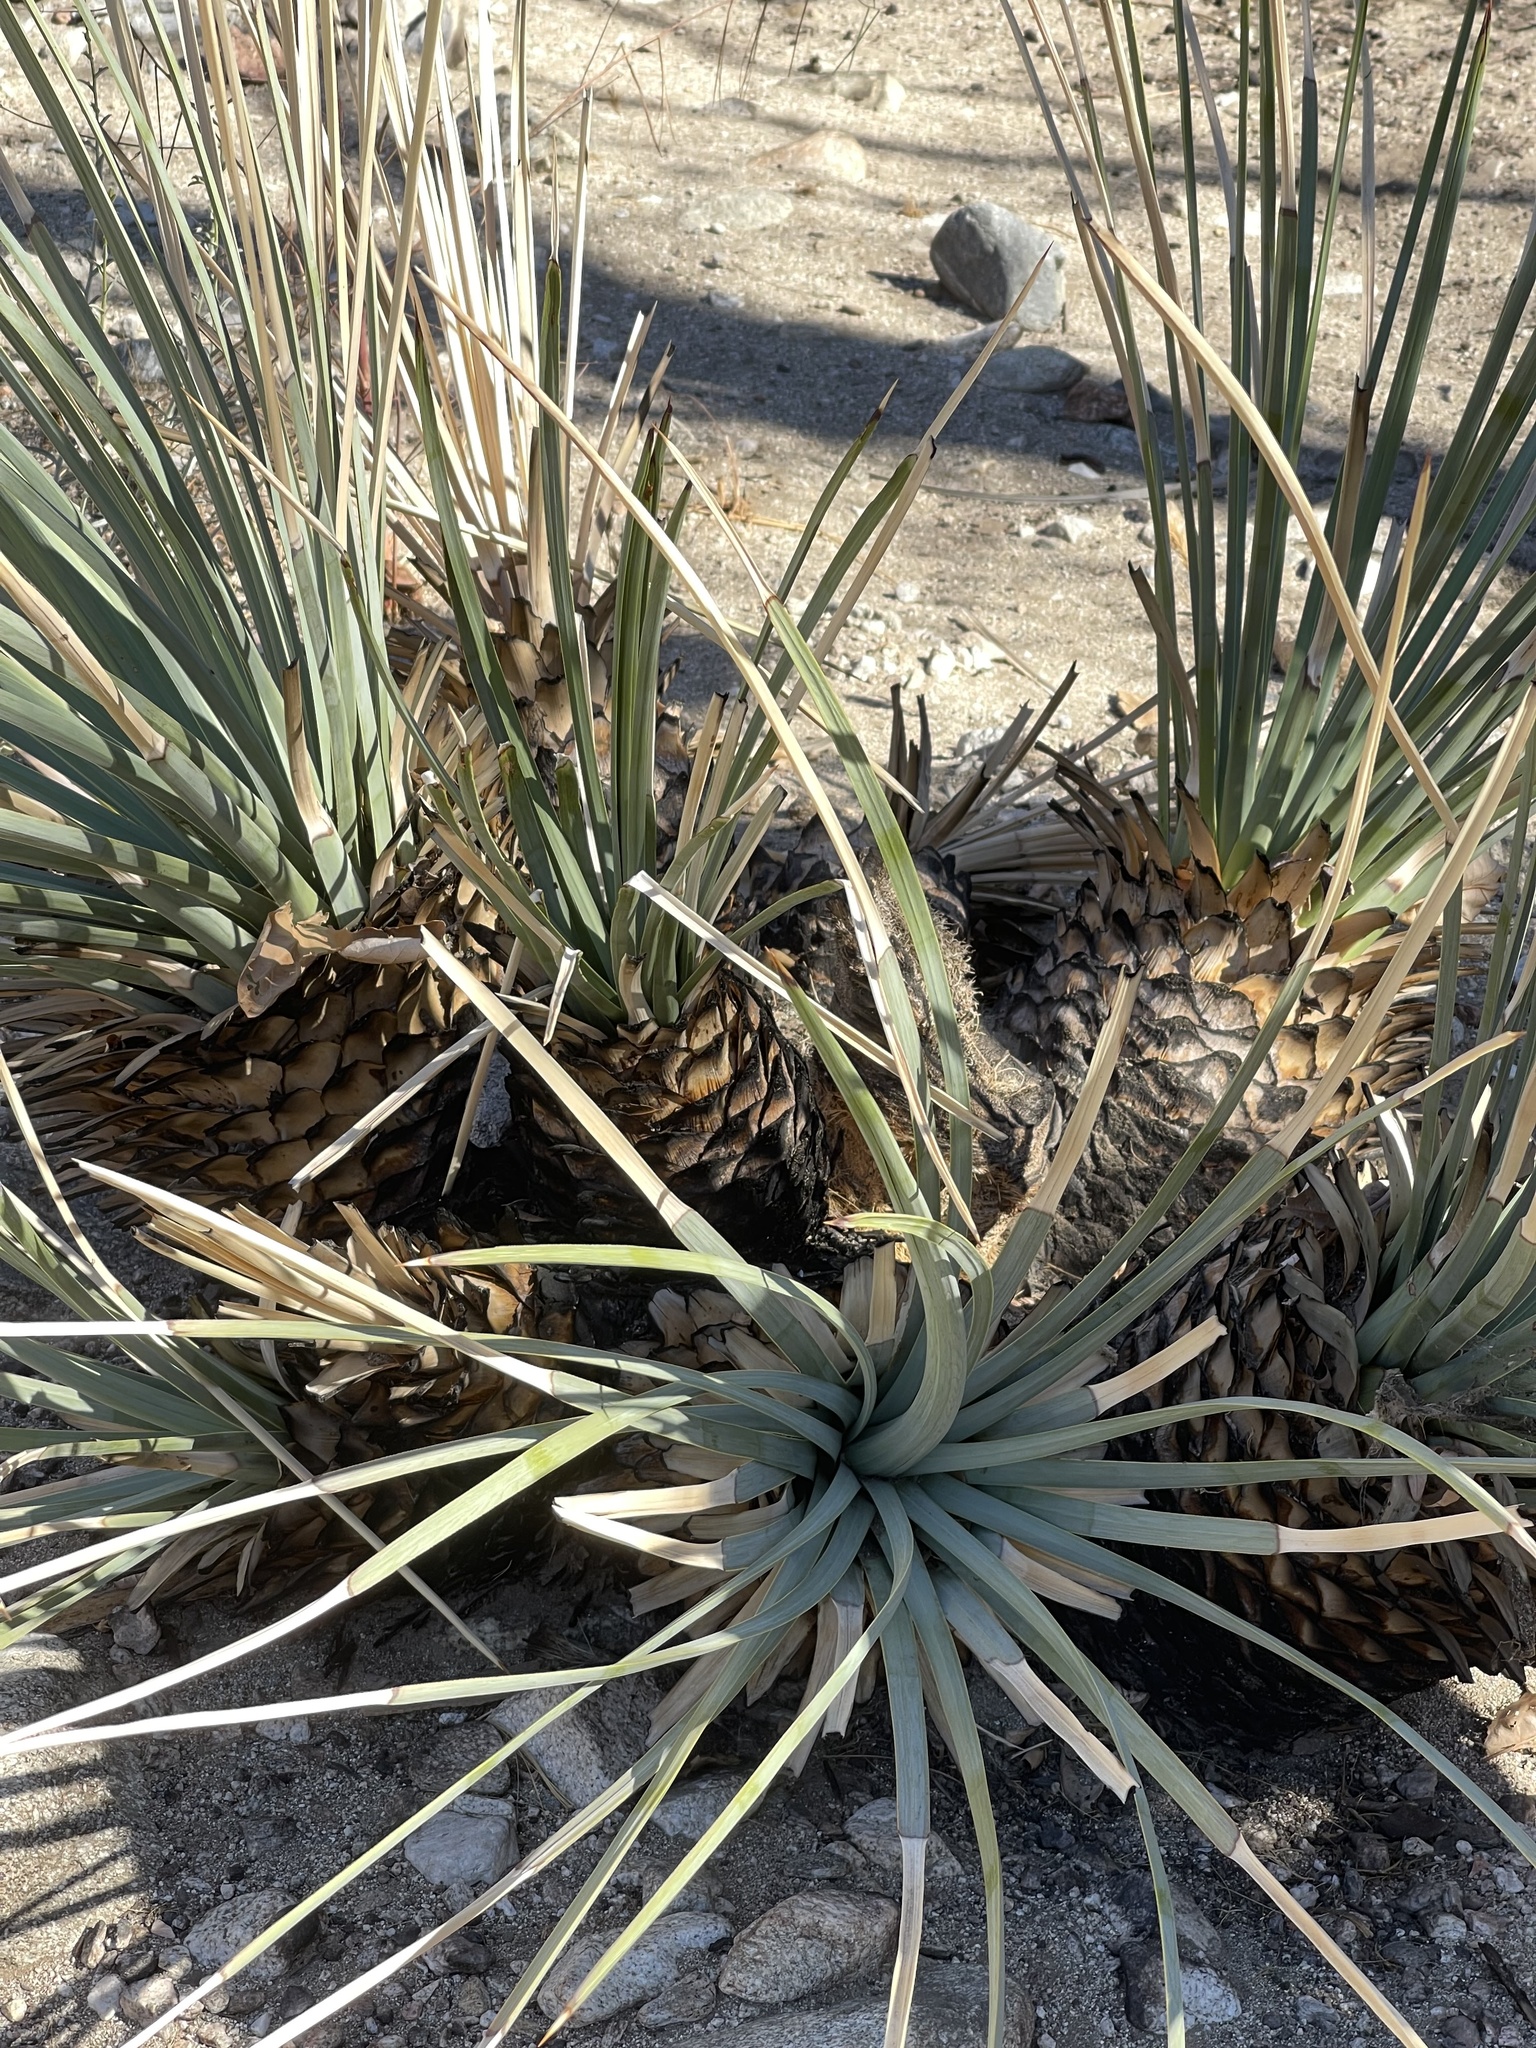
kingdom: Plantae
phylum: Tracheophyta
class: Liliopsida
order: Asparagales
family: Asparagaceae
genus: Hesperoyucca
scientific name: Hesperoyucca whipplei
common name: Our lord's-candle
